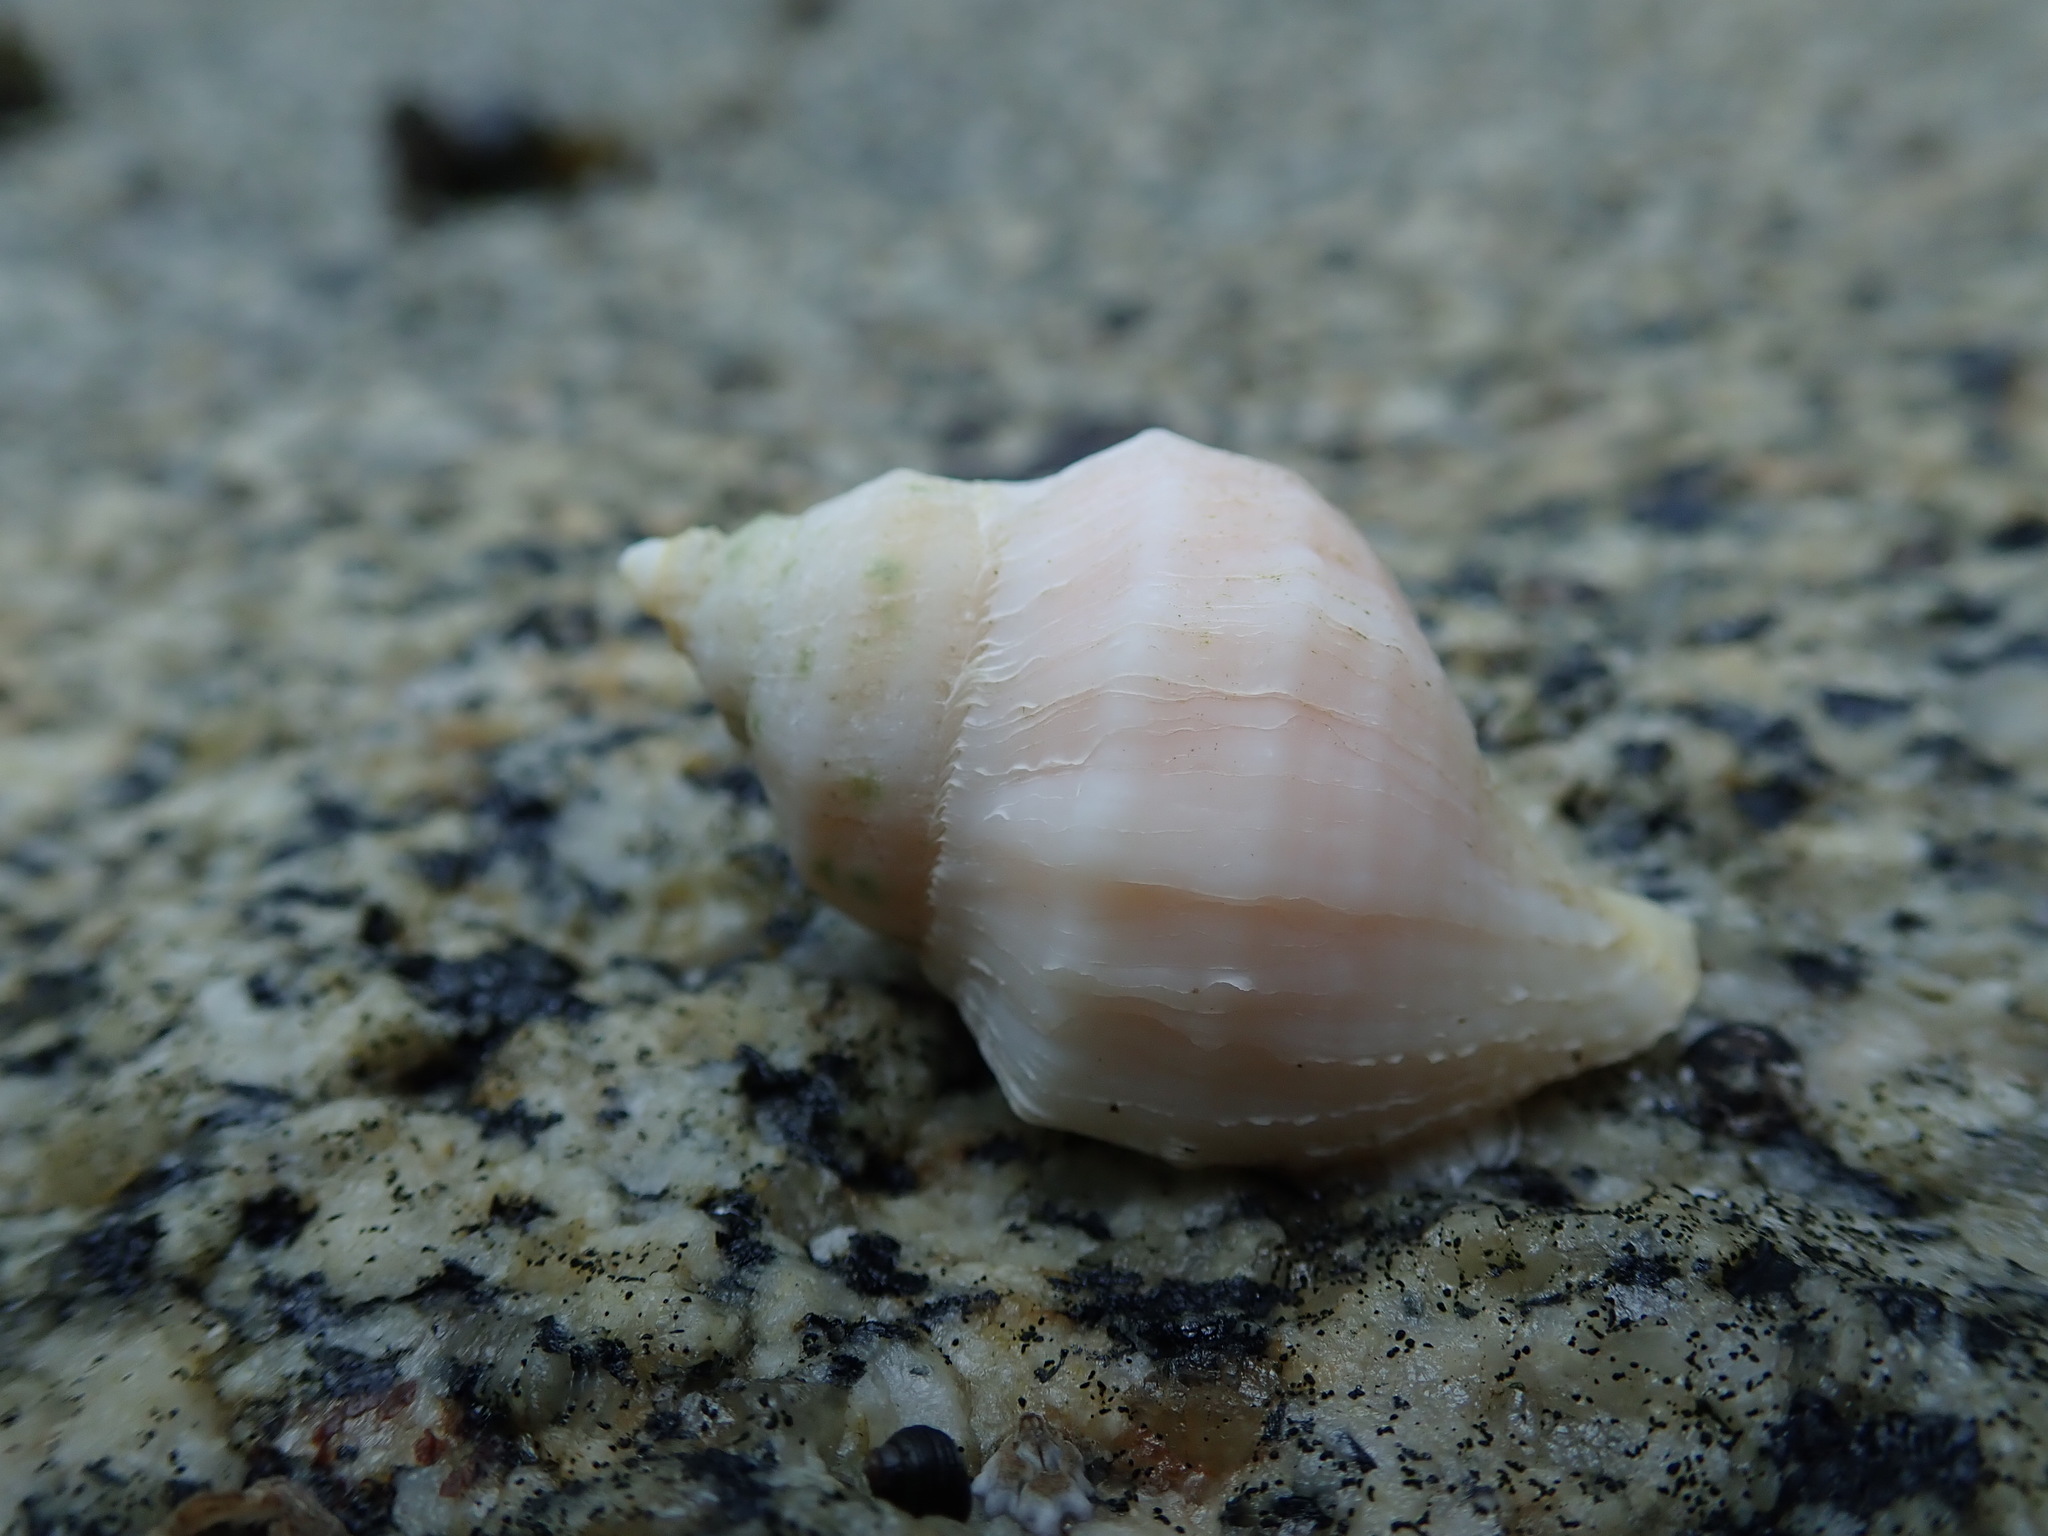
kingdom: Animalia
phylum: Mollusca
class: Gastropoda
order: Neogastropoda
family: Muricidae
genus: Nucella
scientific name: Nucella lamellosa
